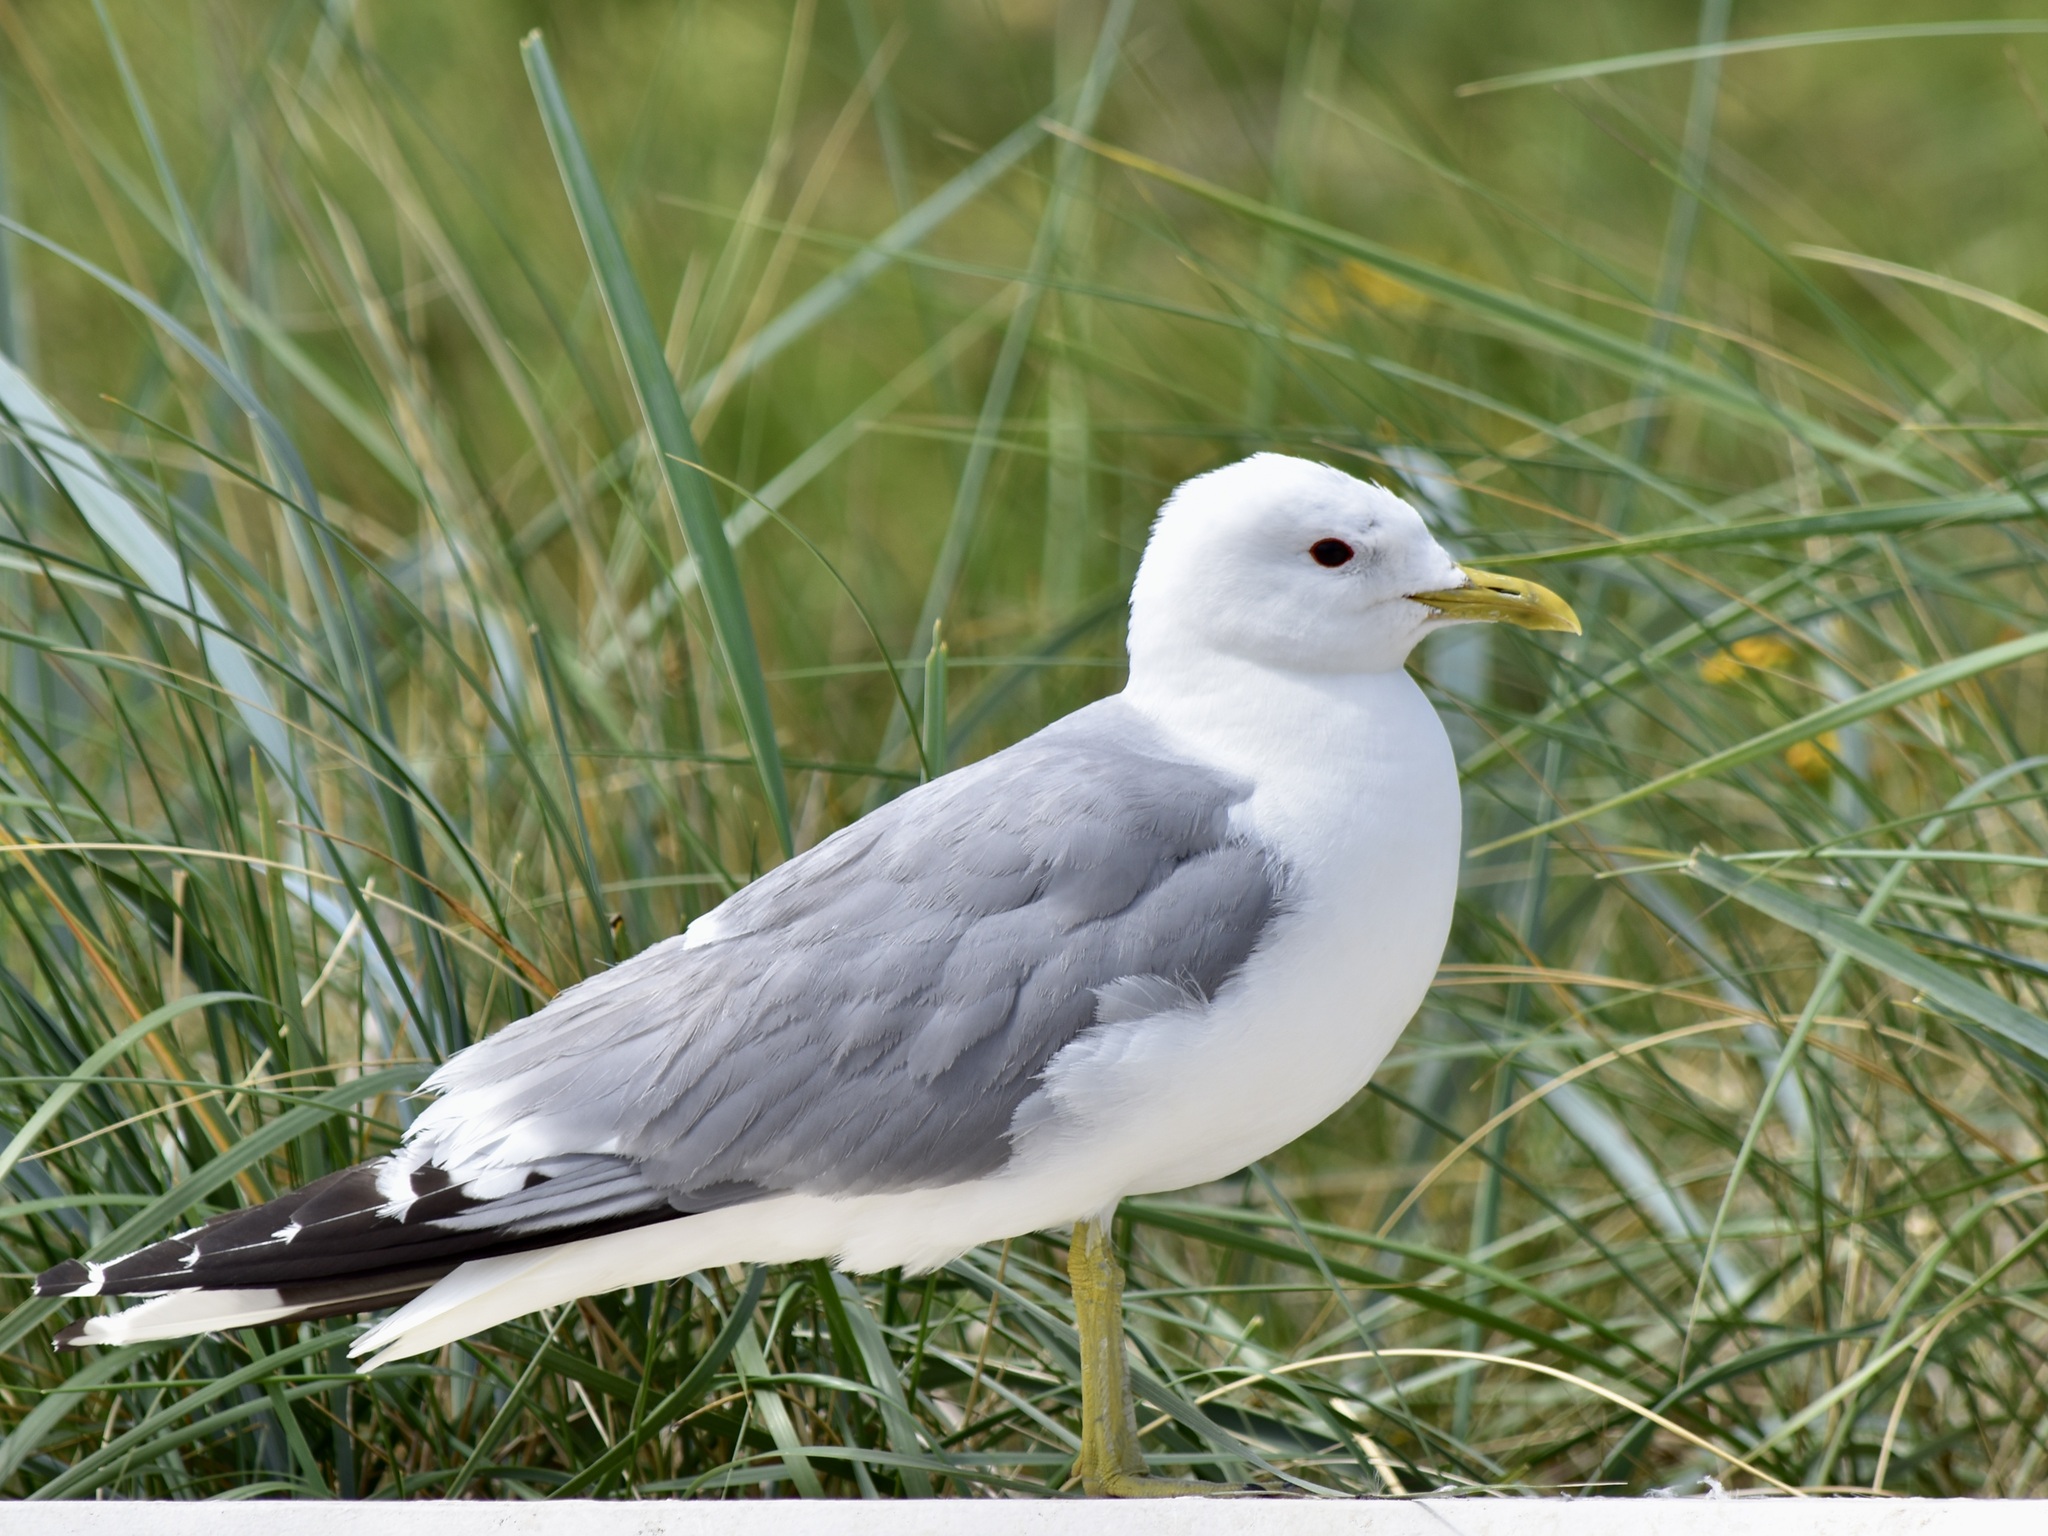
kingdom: Animalia
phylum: Chordata
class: Aves
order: Charadriiformes
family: Laridae
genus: Larus
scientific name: Larus canus
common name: Mew gull
